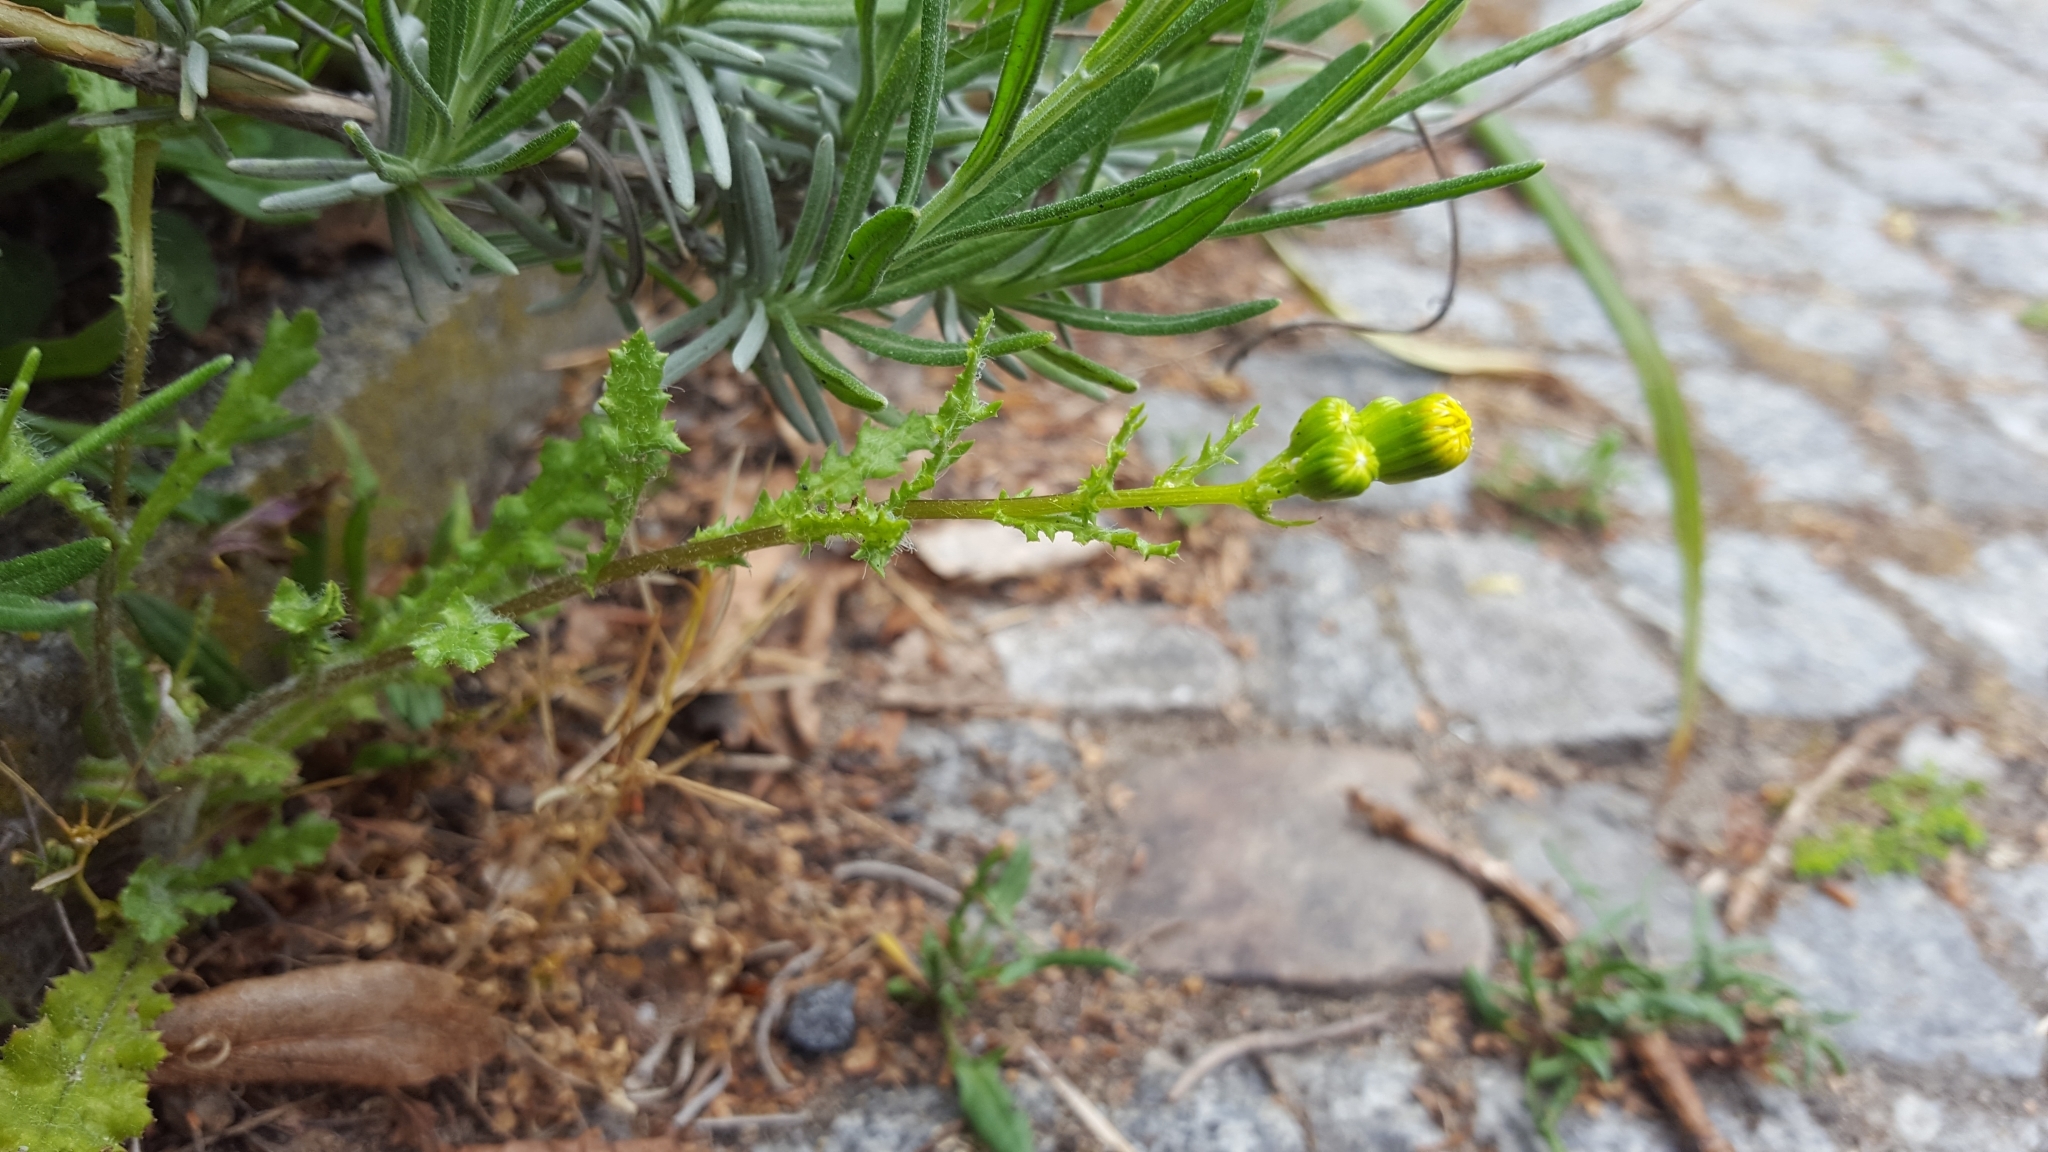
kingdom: Plantae
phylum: Tracheophyta
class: Magnoliopsida
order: Asterales
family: Asteraceae
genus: Senecio
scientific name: Senecio vulgaris
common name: Old-man-in-the-spring
